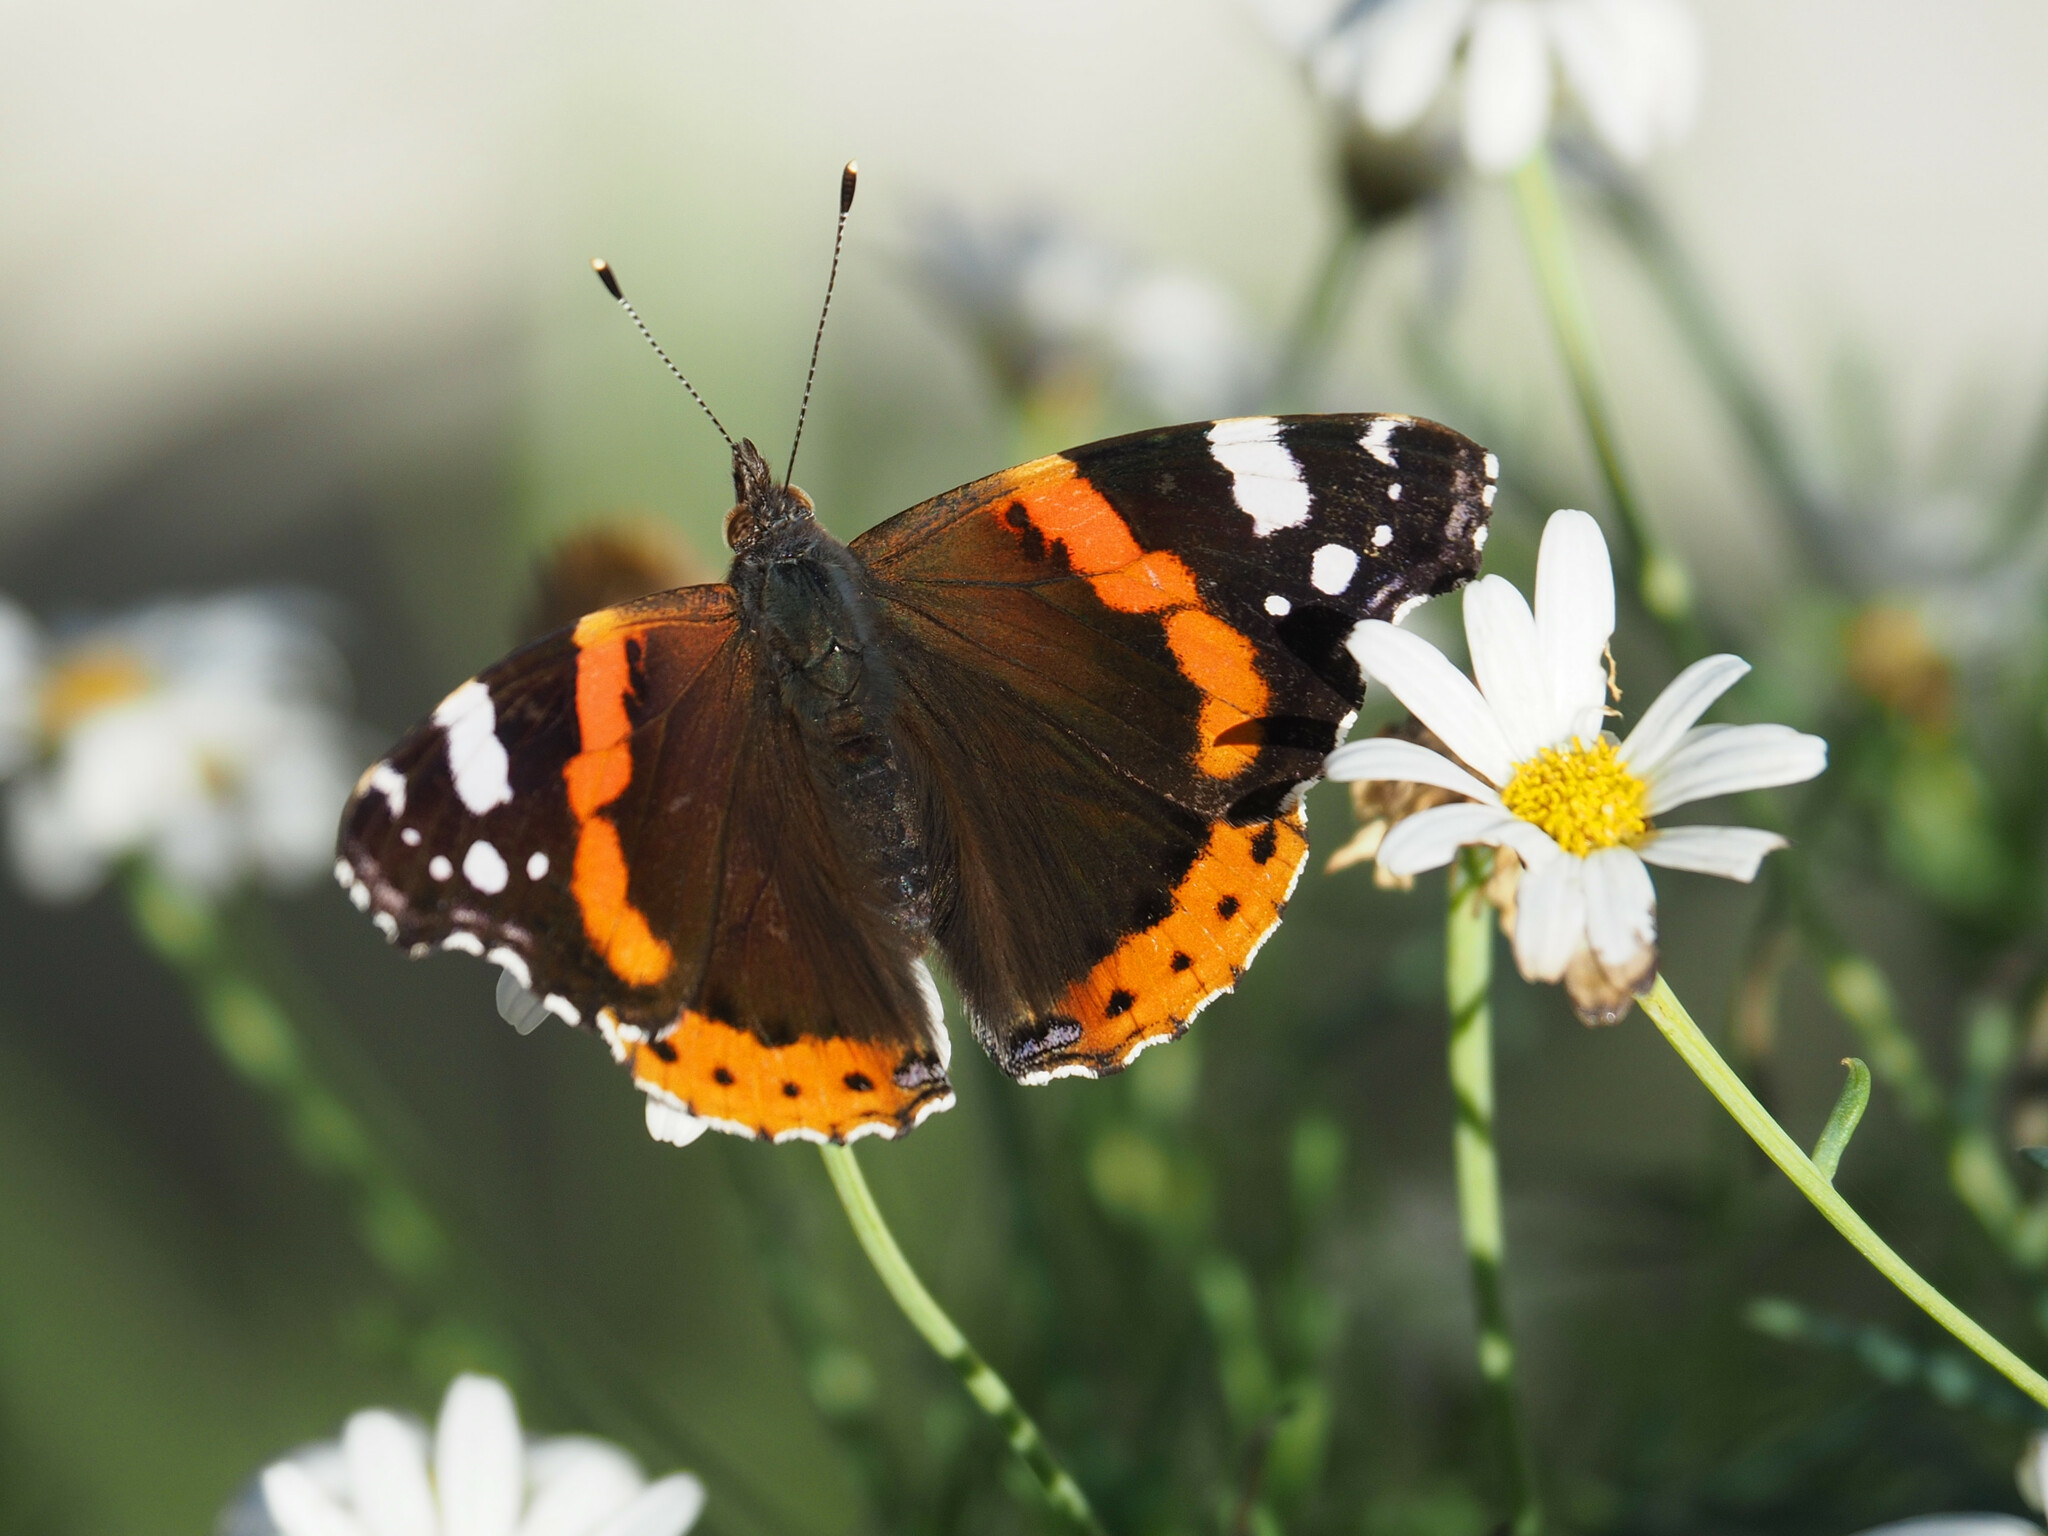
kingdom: Animalia
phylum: Arthropoda
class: Insecta
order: Lepidoptera
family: Nymphalidae
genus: Vanessa
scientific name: Vanessa atalanta
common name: Red admiral
